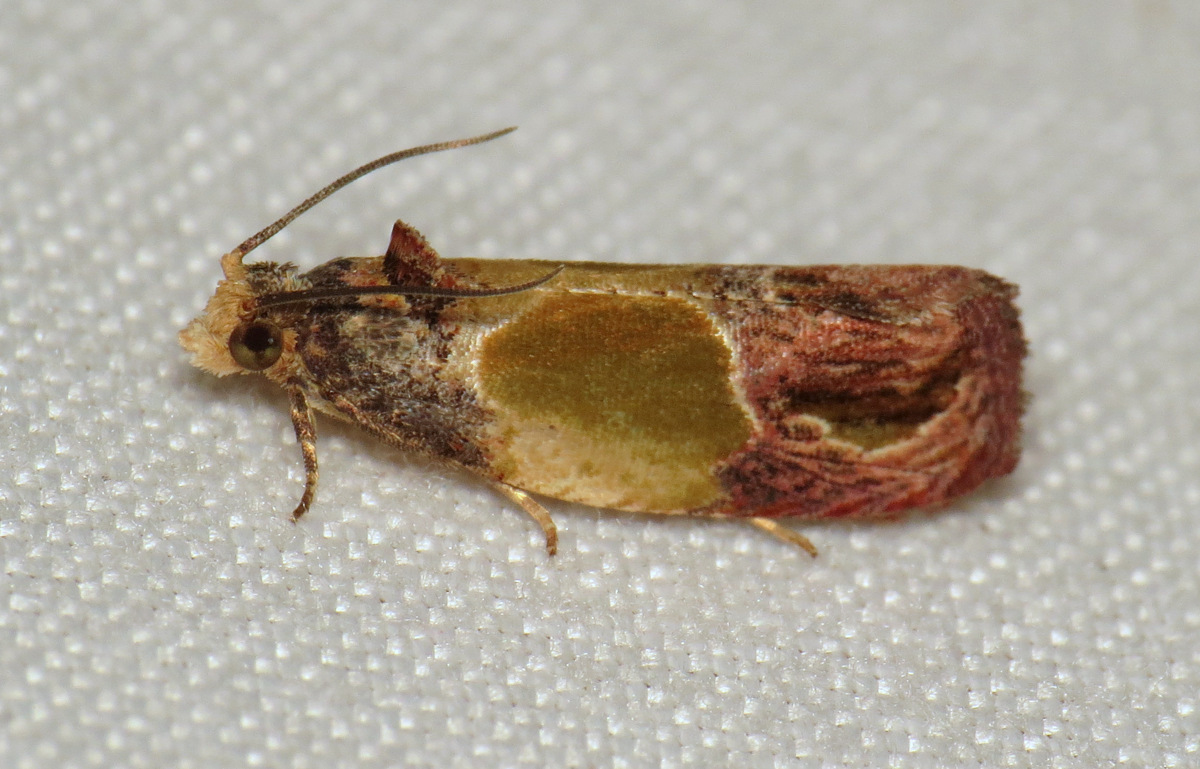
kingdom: Animalia
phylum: Arthropoda
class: Insecta
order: Lepidoptera
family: Tortricidae
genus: Eumarozia
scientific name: Eumarozia malachitana
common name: Sculptured moth
